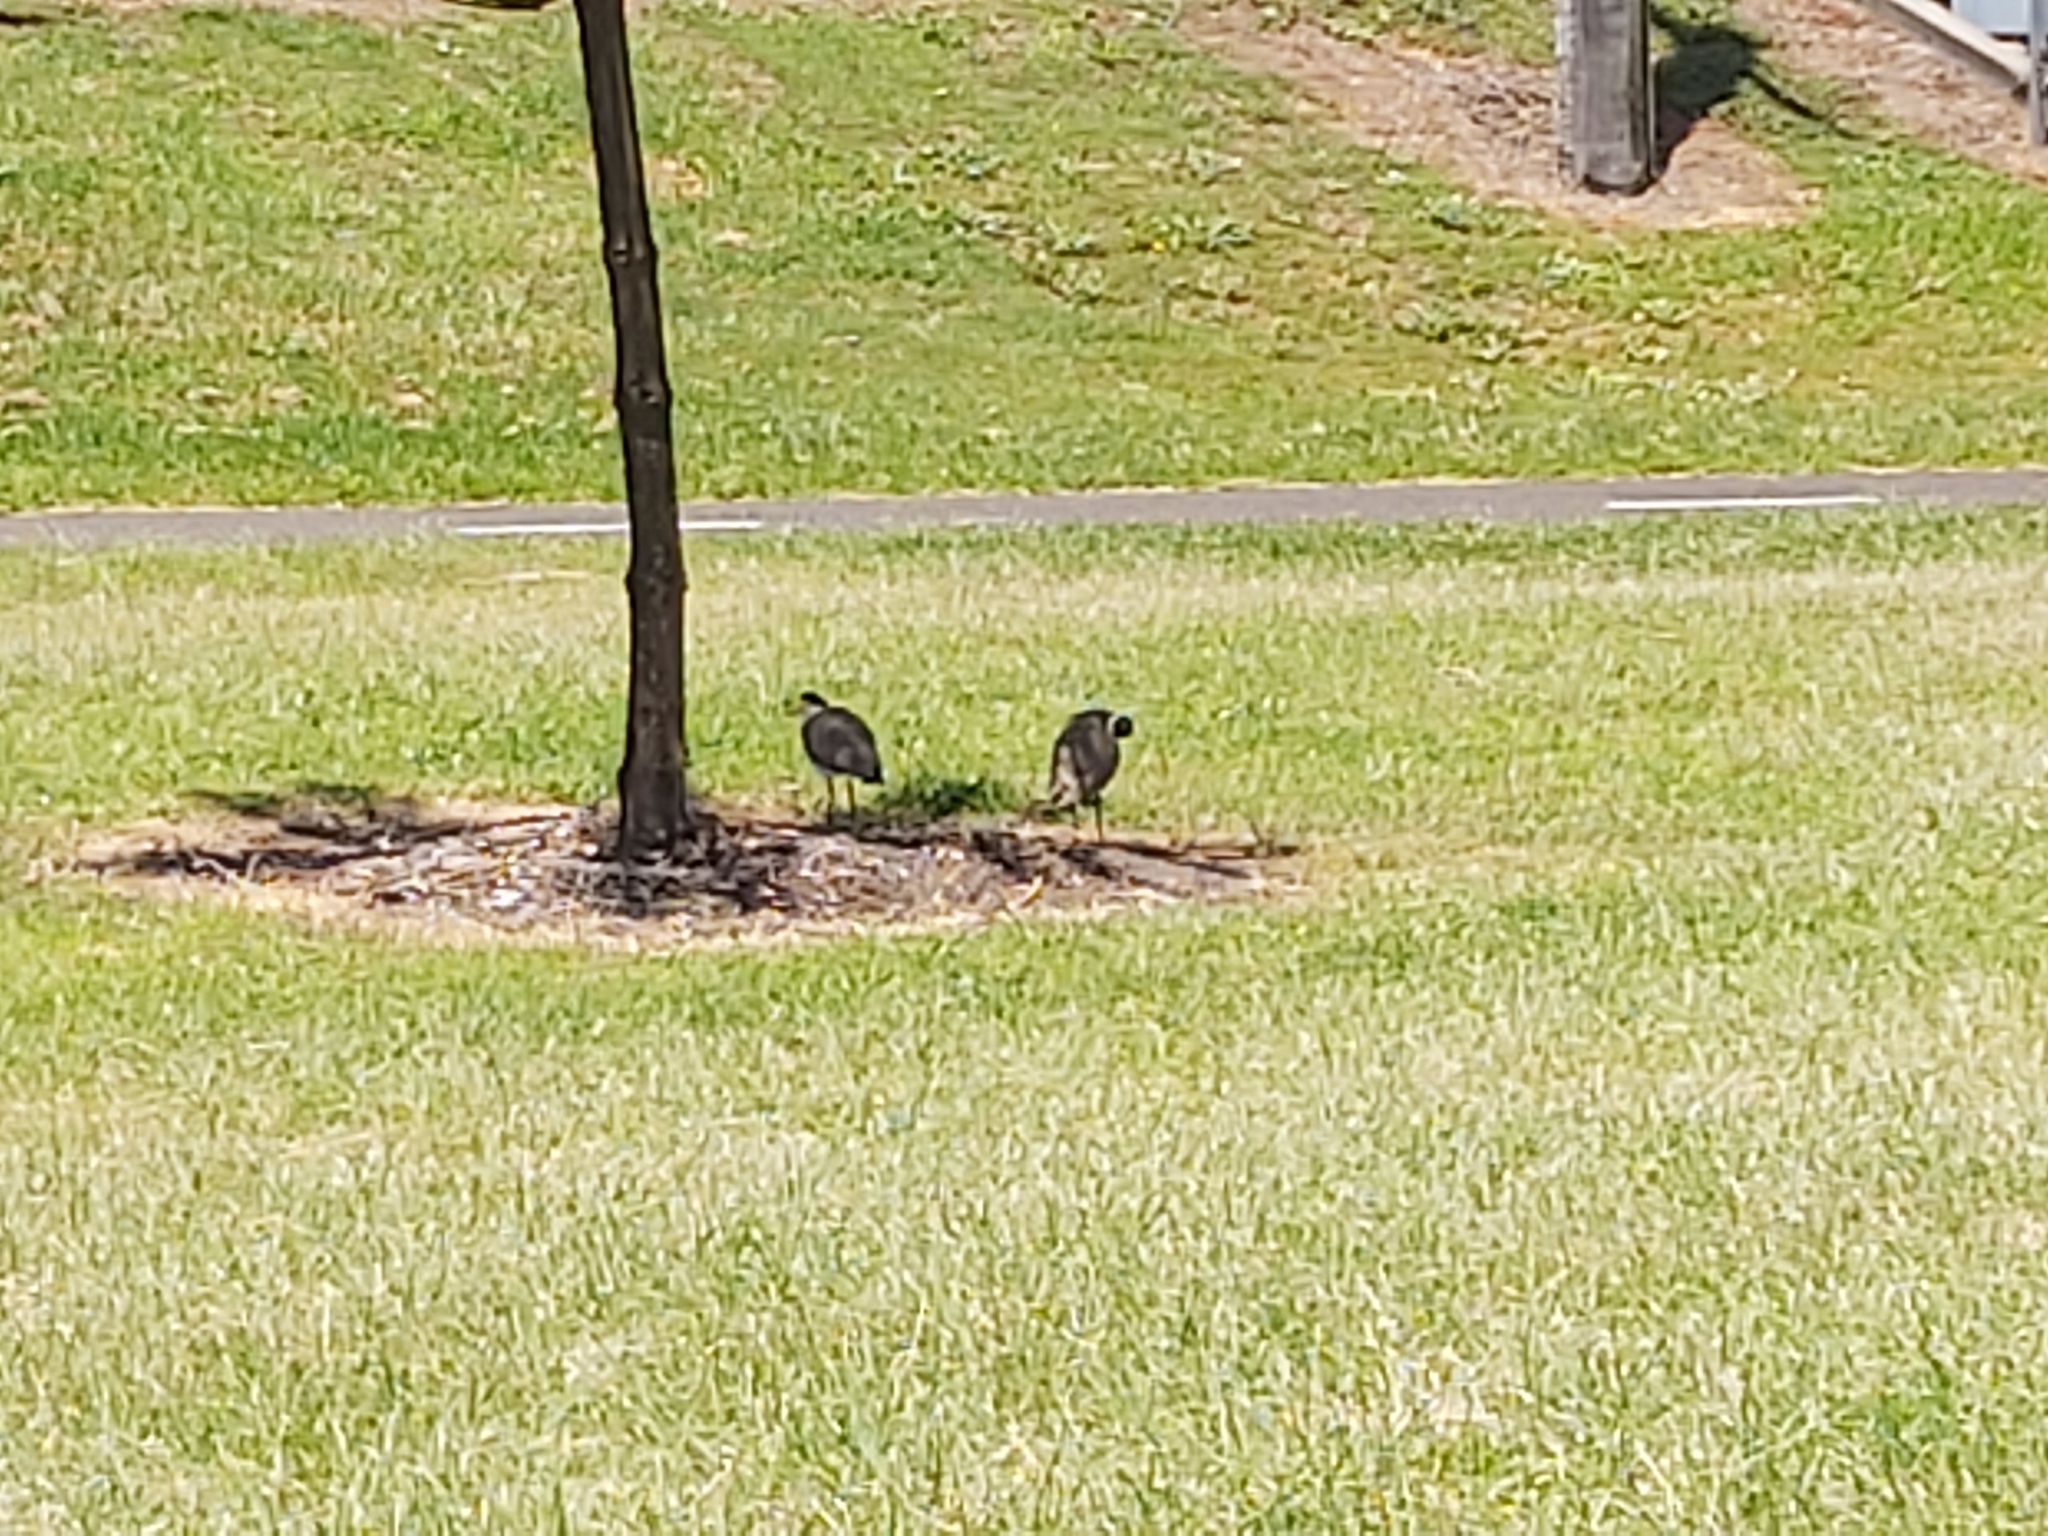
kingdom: Animalia
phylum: Chordata
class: Aves
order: Charadriiformes
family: Charadriidae
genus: Vanellus
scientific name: Vanellus miles
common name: Masked lapwing
